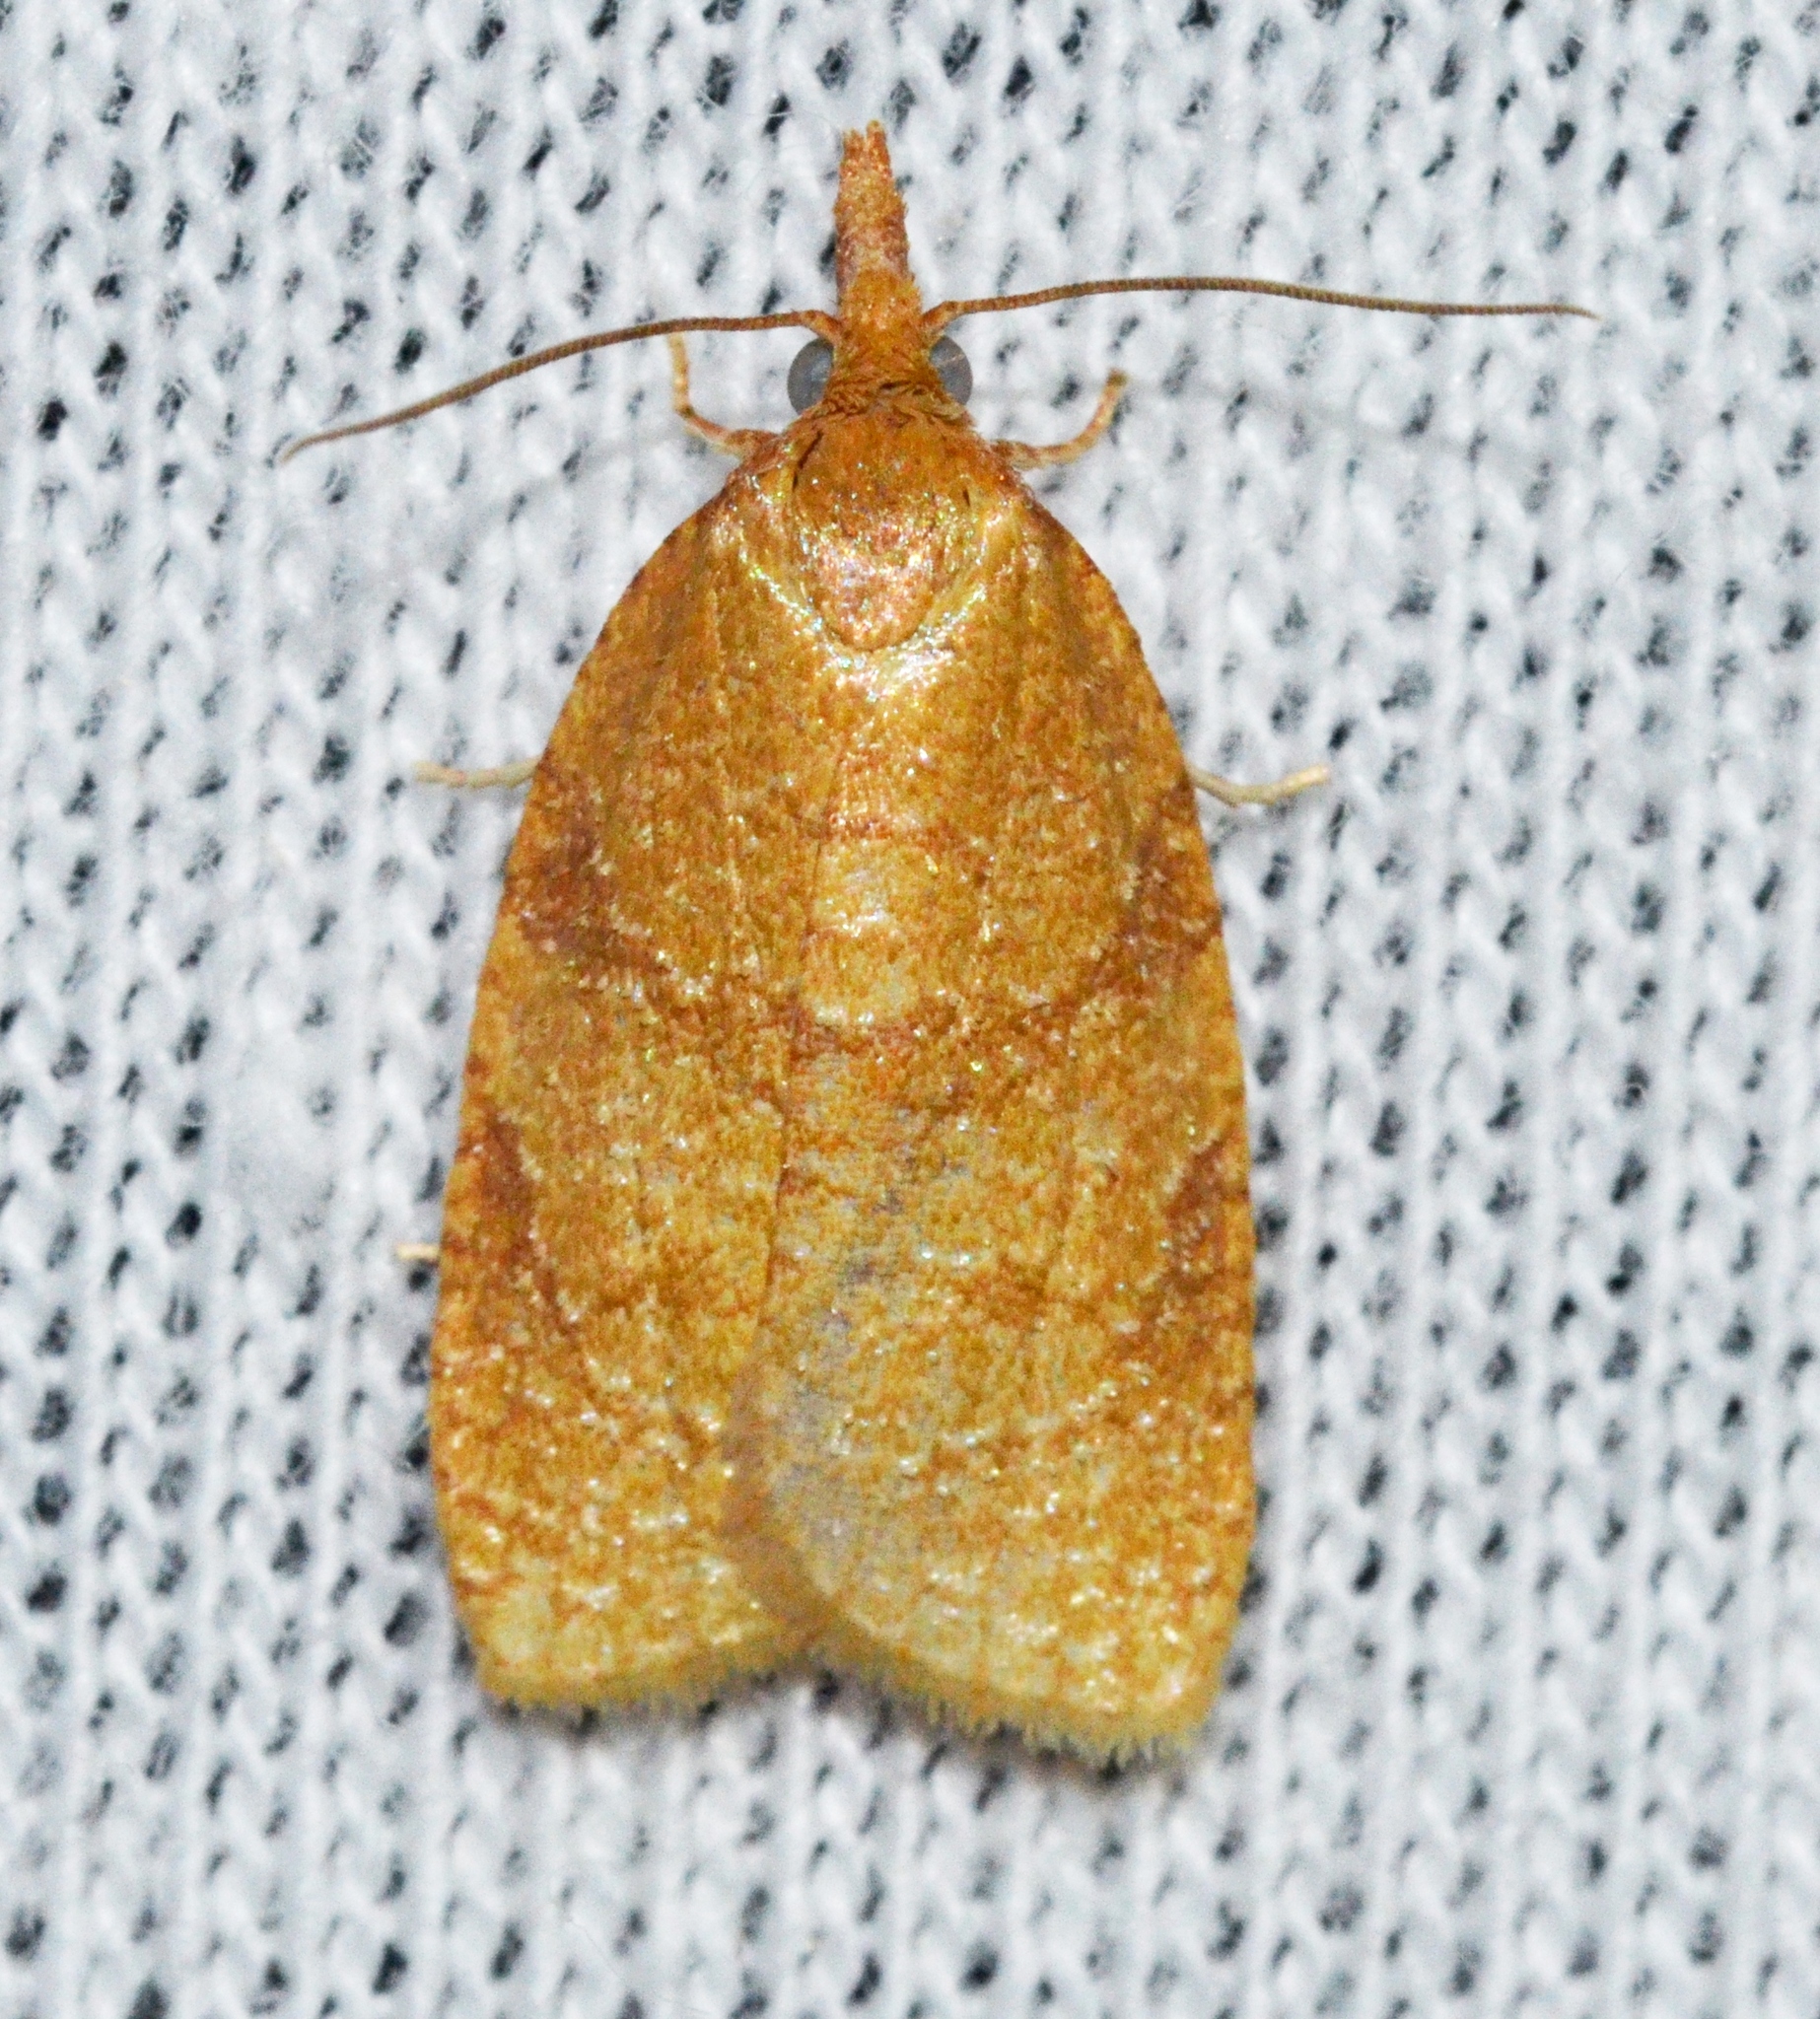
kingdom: Animalia
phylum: Arthropoda
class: Insecta
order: Lepidoptera
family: Tortricidae
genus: Cenopis
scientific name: Cenopis directana
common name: Chokecherry leafroller moth
